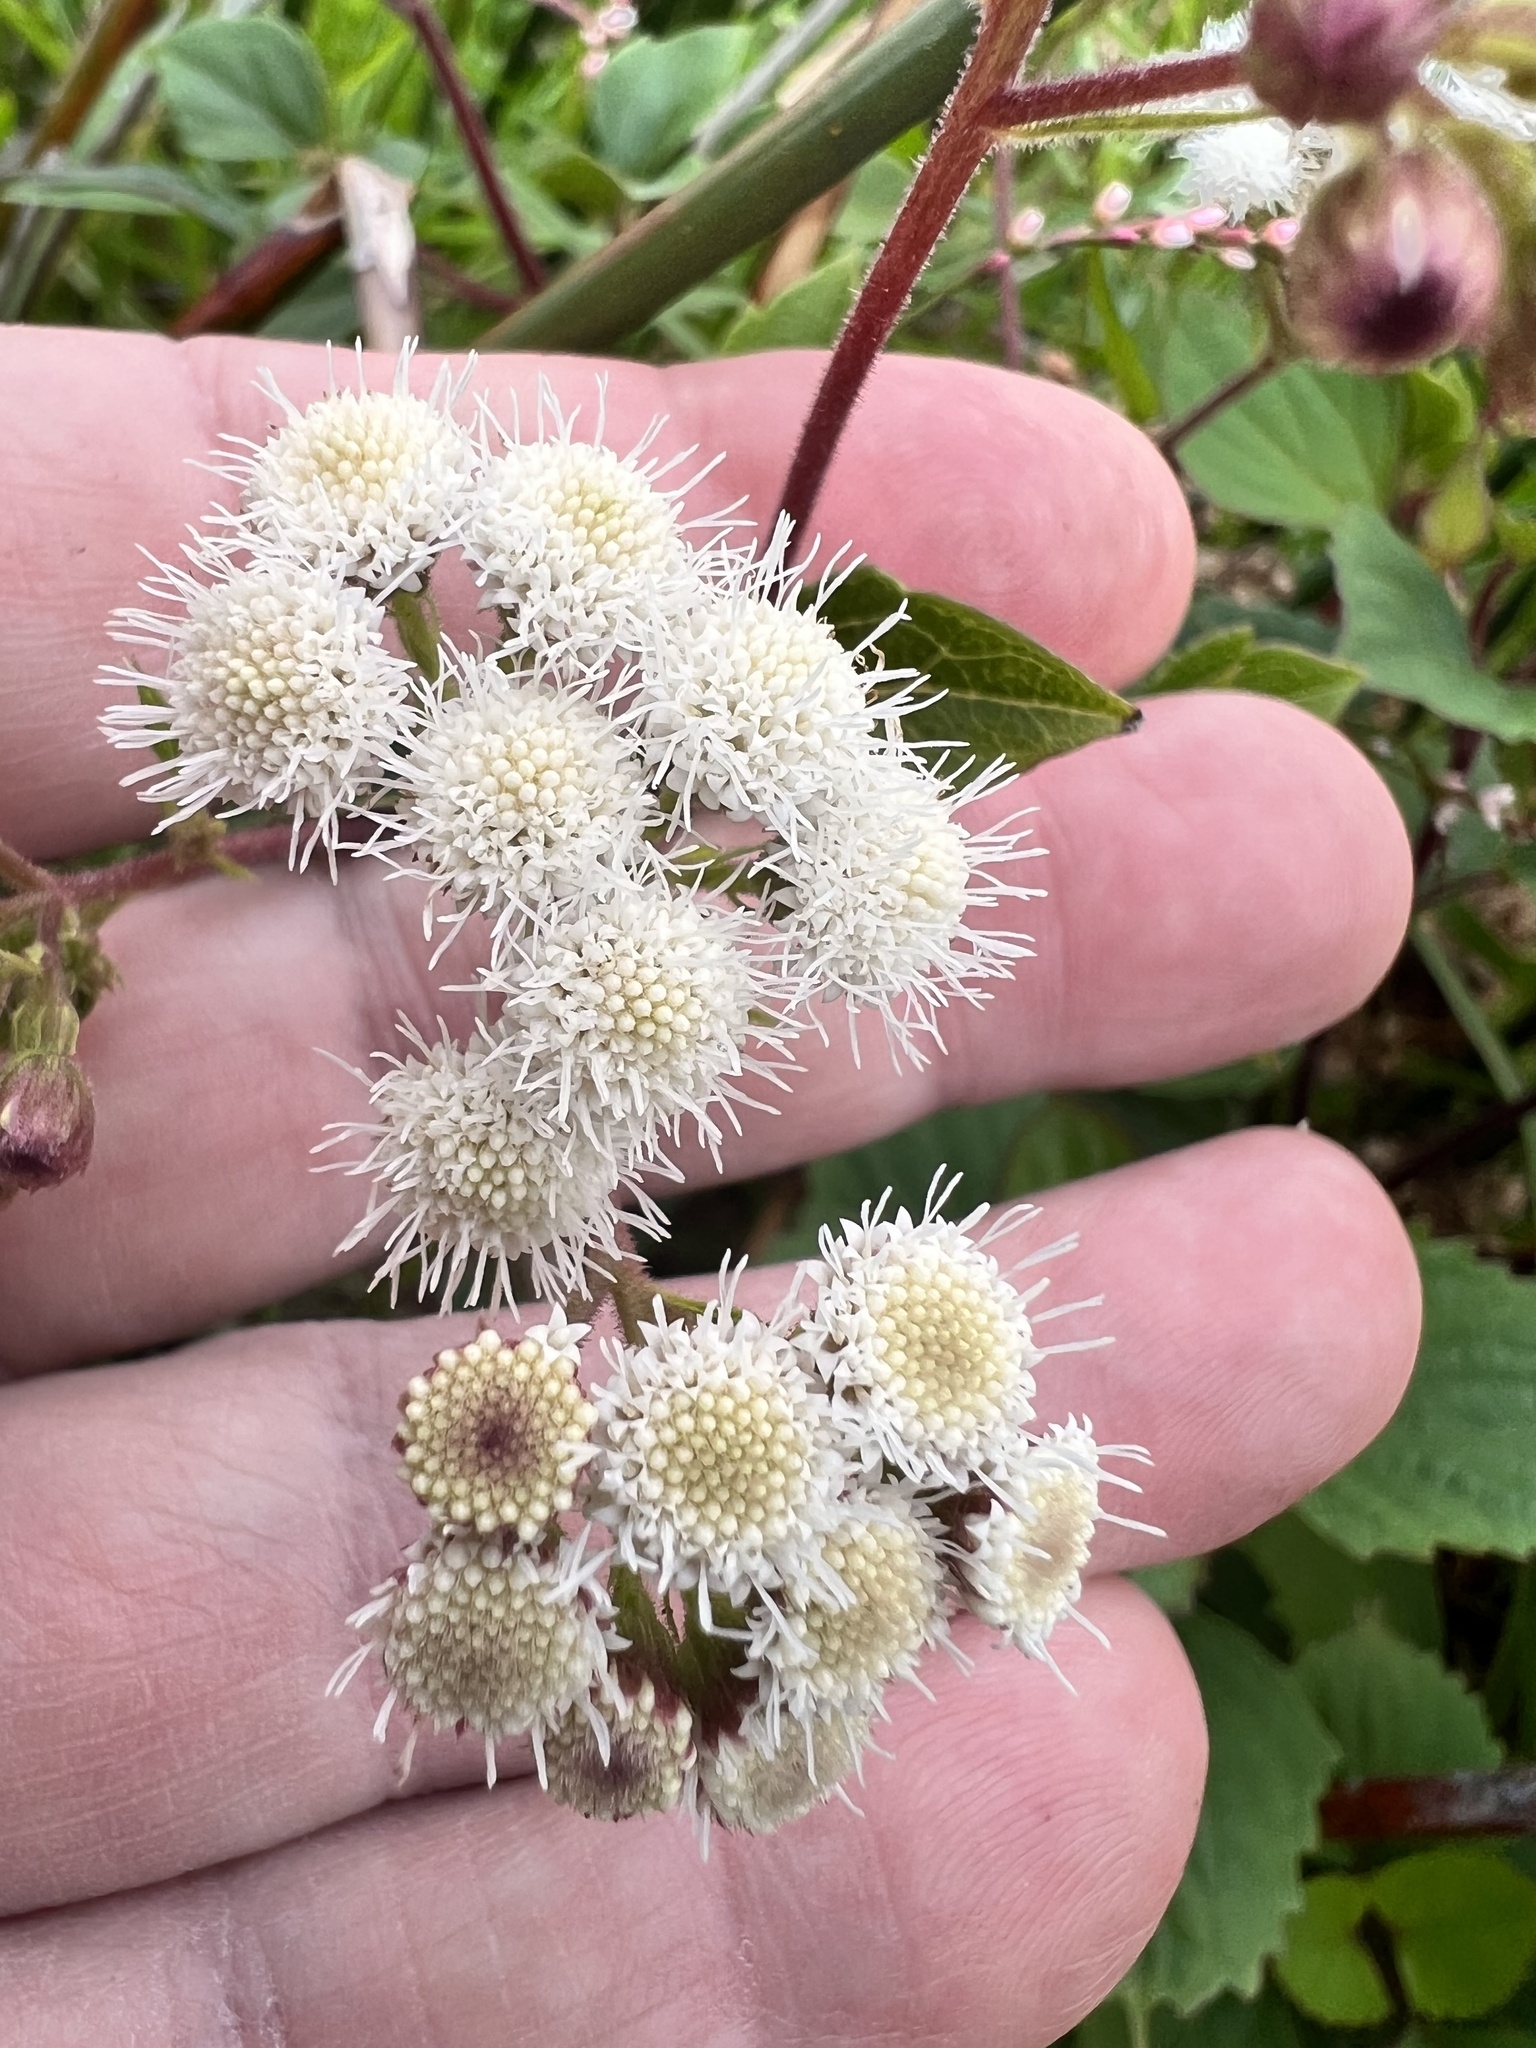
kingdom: Plantae
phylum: Tracheophyta
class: Magnoliopsida
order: Asterales
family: Asteraceae
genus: Ageratina
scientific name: Ageratina adenophora
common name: Sticky snakeroot
